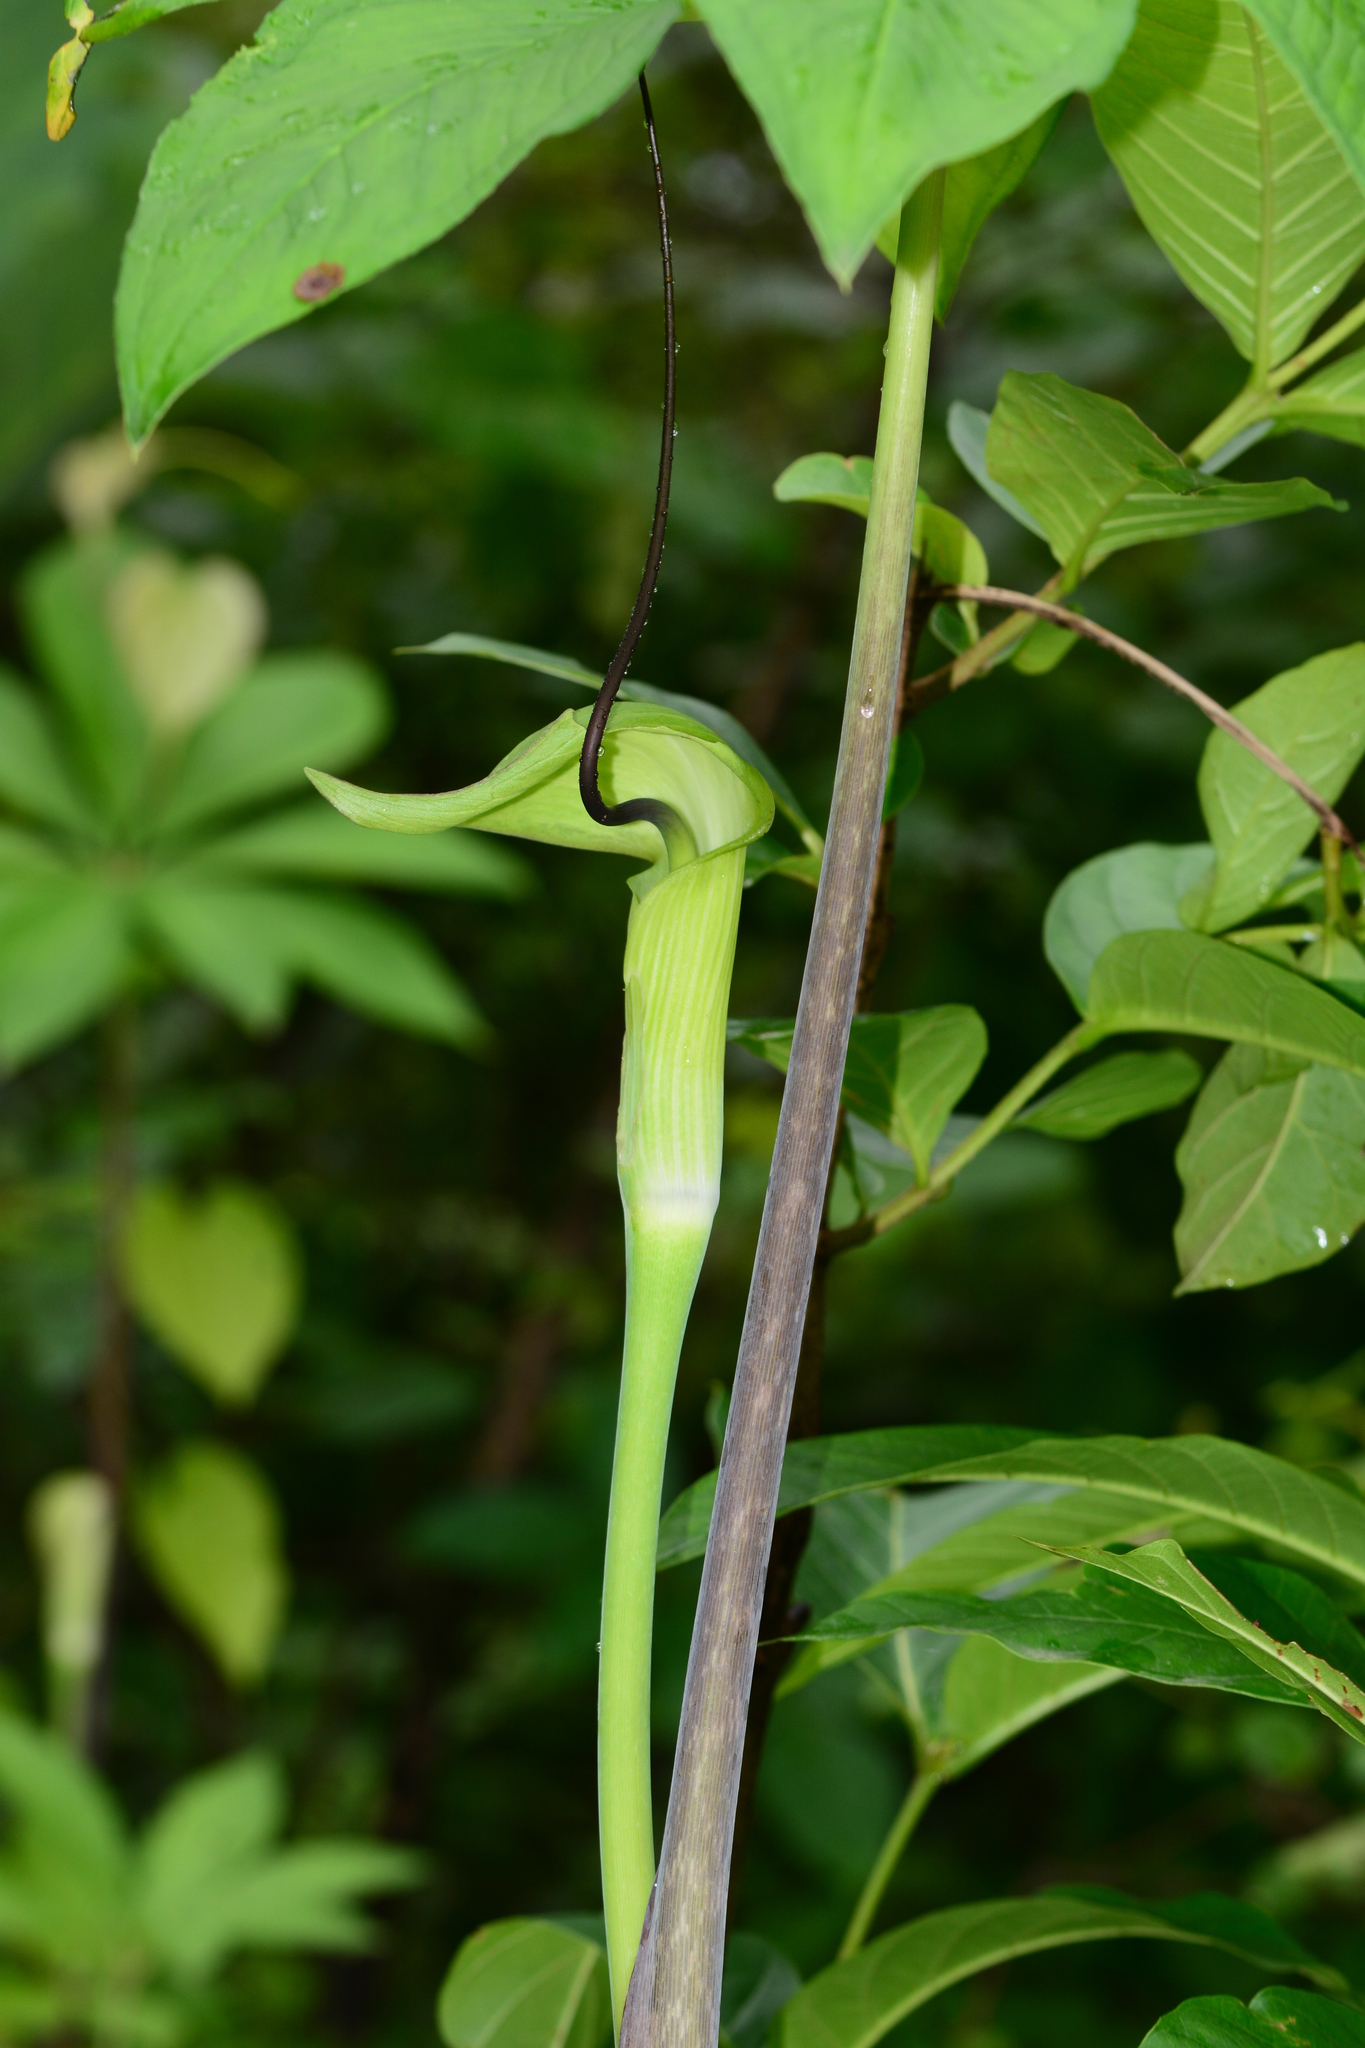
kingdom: Plantae
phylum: Tracheophyta
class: Liliopsida
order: Alismatales
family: Araceae
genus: Arisaema
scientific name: Arisaema tortuosum
